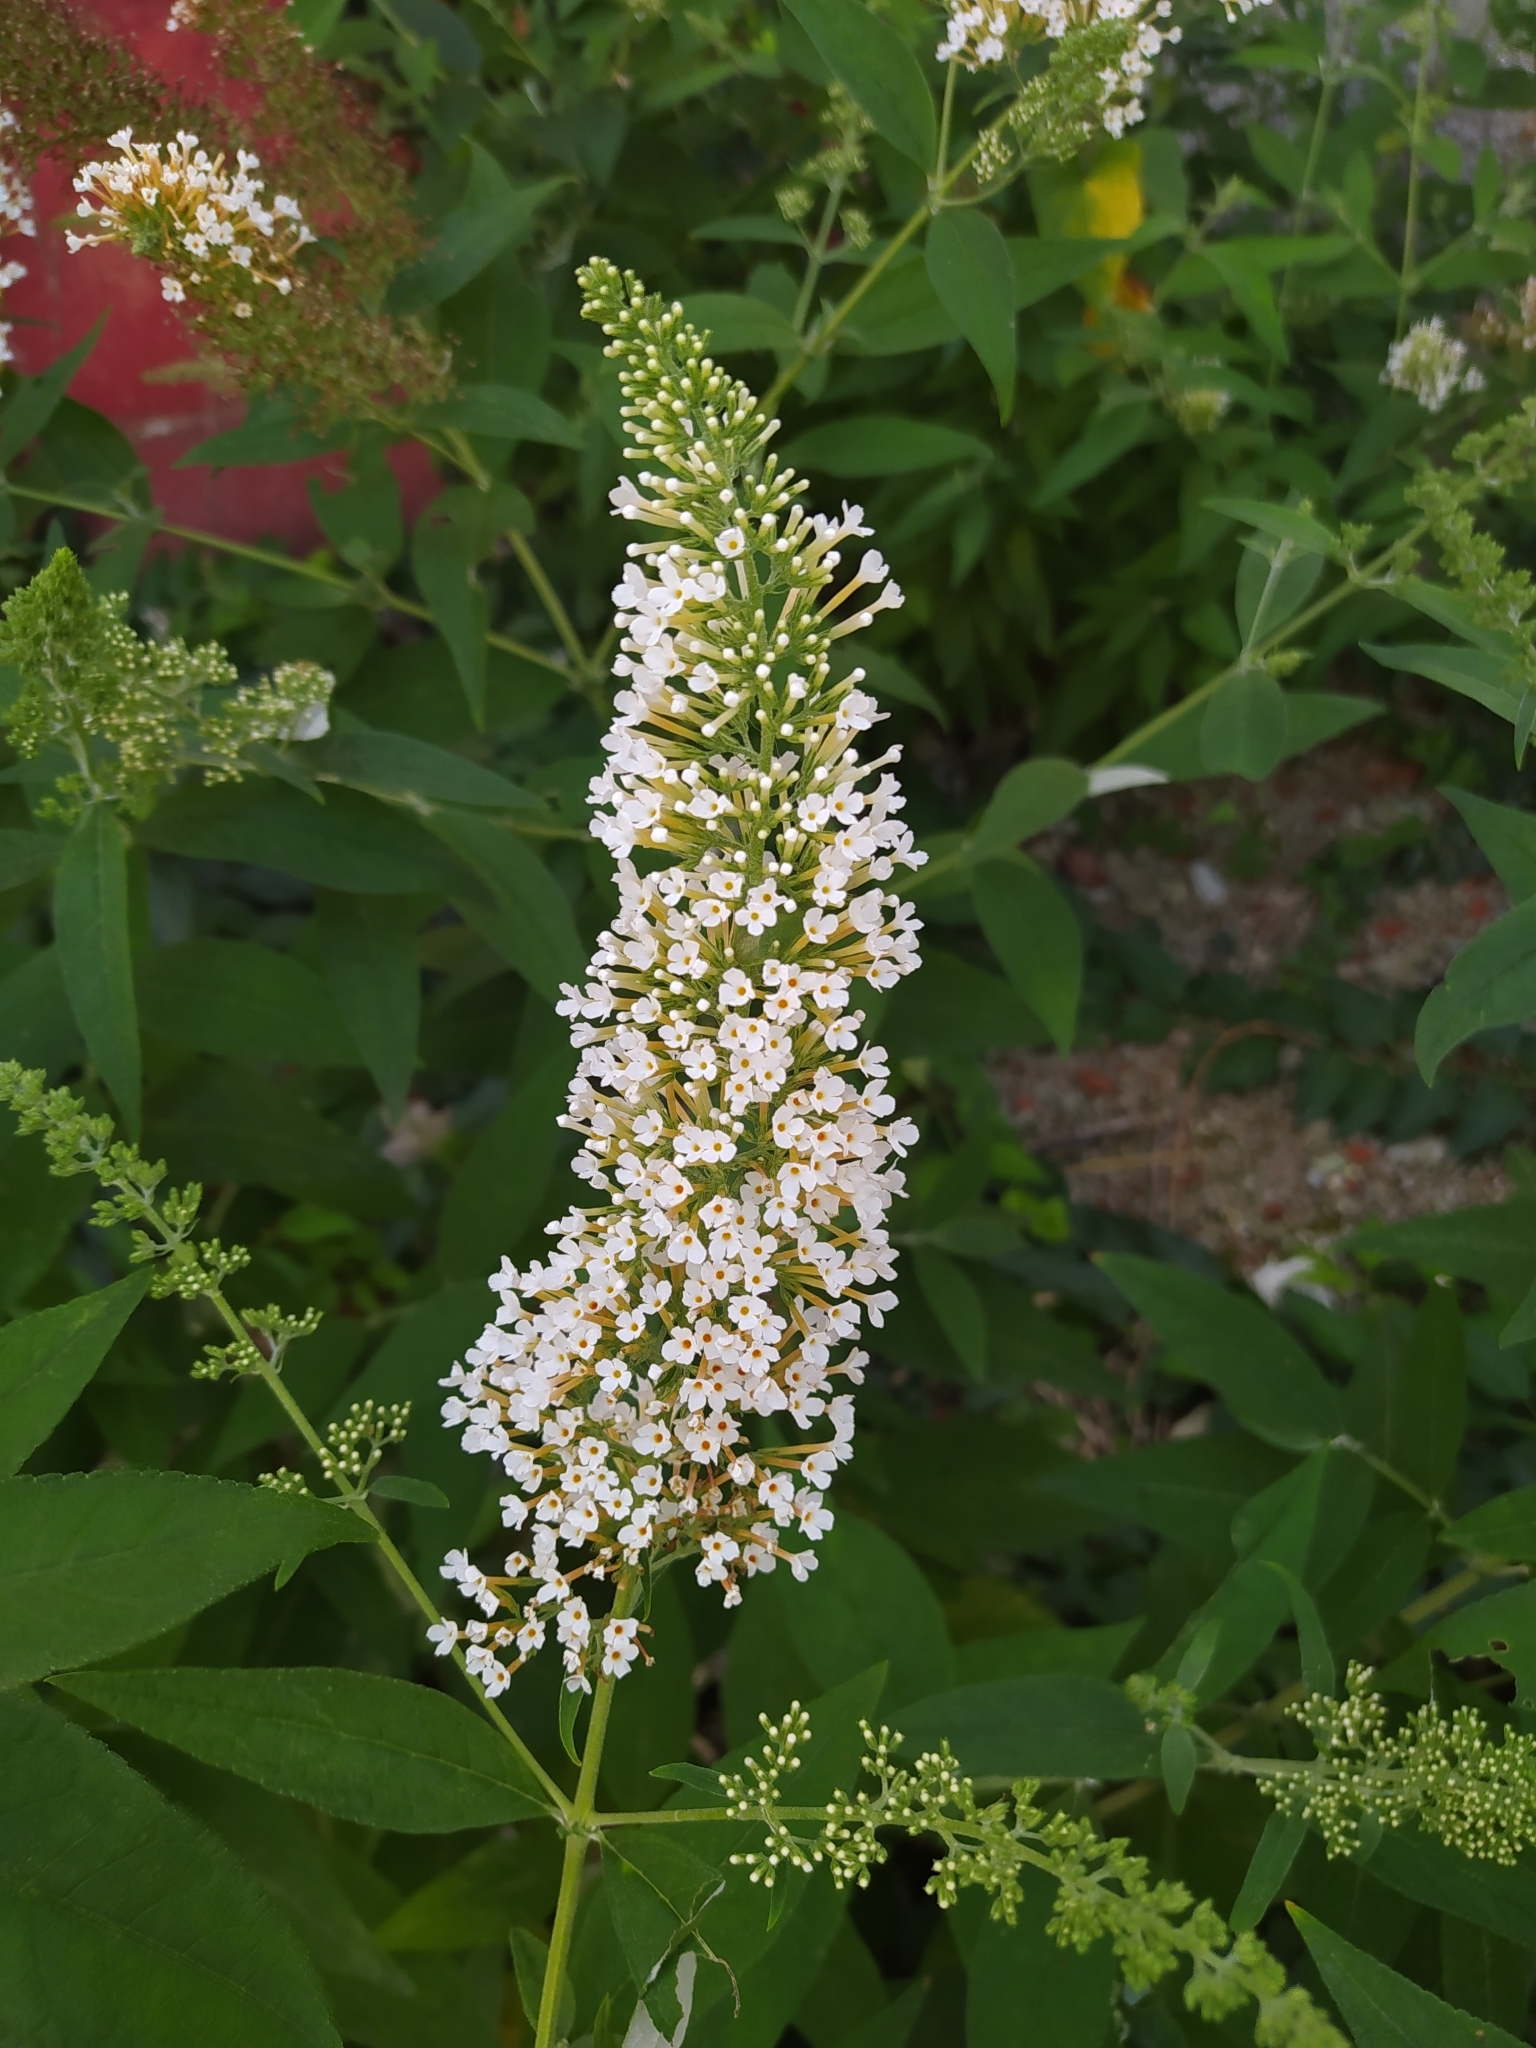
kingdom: Plantae
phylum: Tracheophyta
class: Magnoliopsida
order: Lamiales
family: Scrophulariaceae
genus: Buddleja
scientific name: Buddleja davidii
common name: Butterfly-bush
